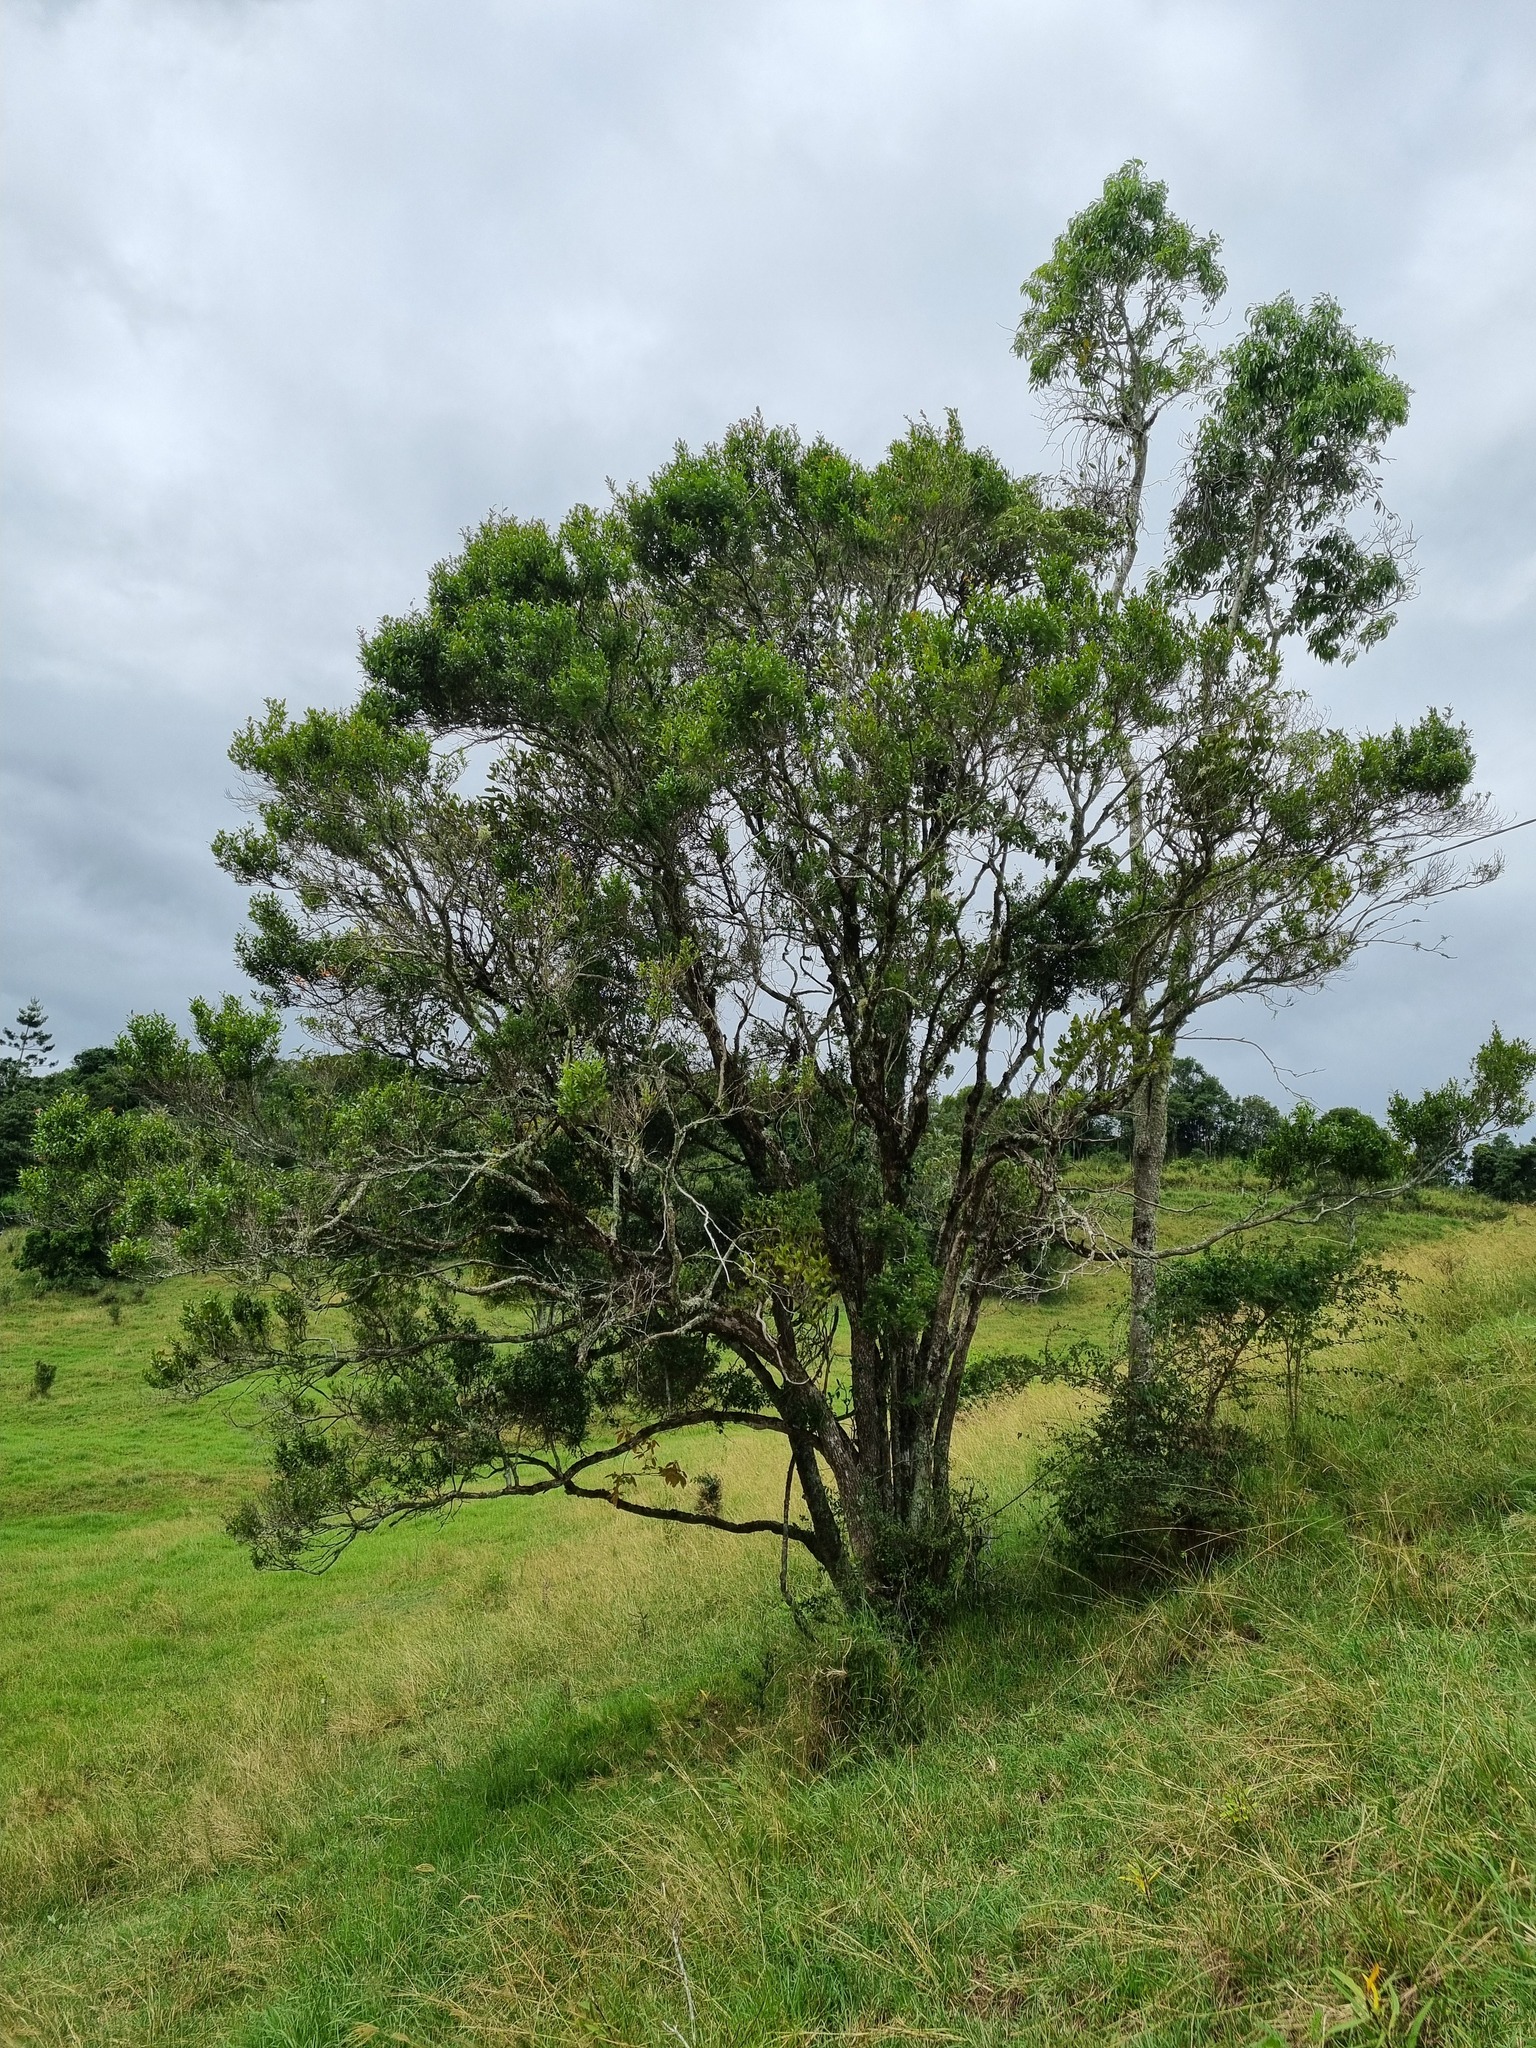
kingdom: Fungi
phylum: Basidiomycota
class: Pucciniomycetes
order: Pucciniales
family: Sphaerophragmiaceae
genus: Austropuccinia
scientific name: Austropuccinia psidii
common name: Myrtle rust
